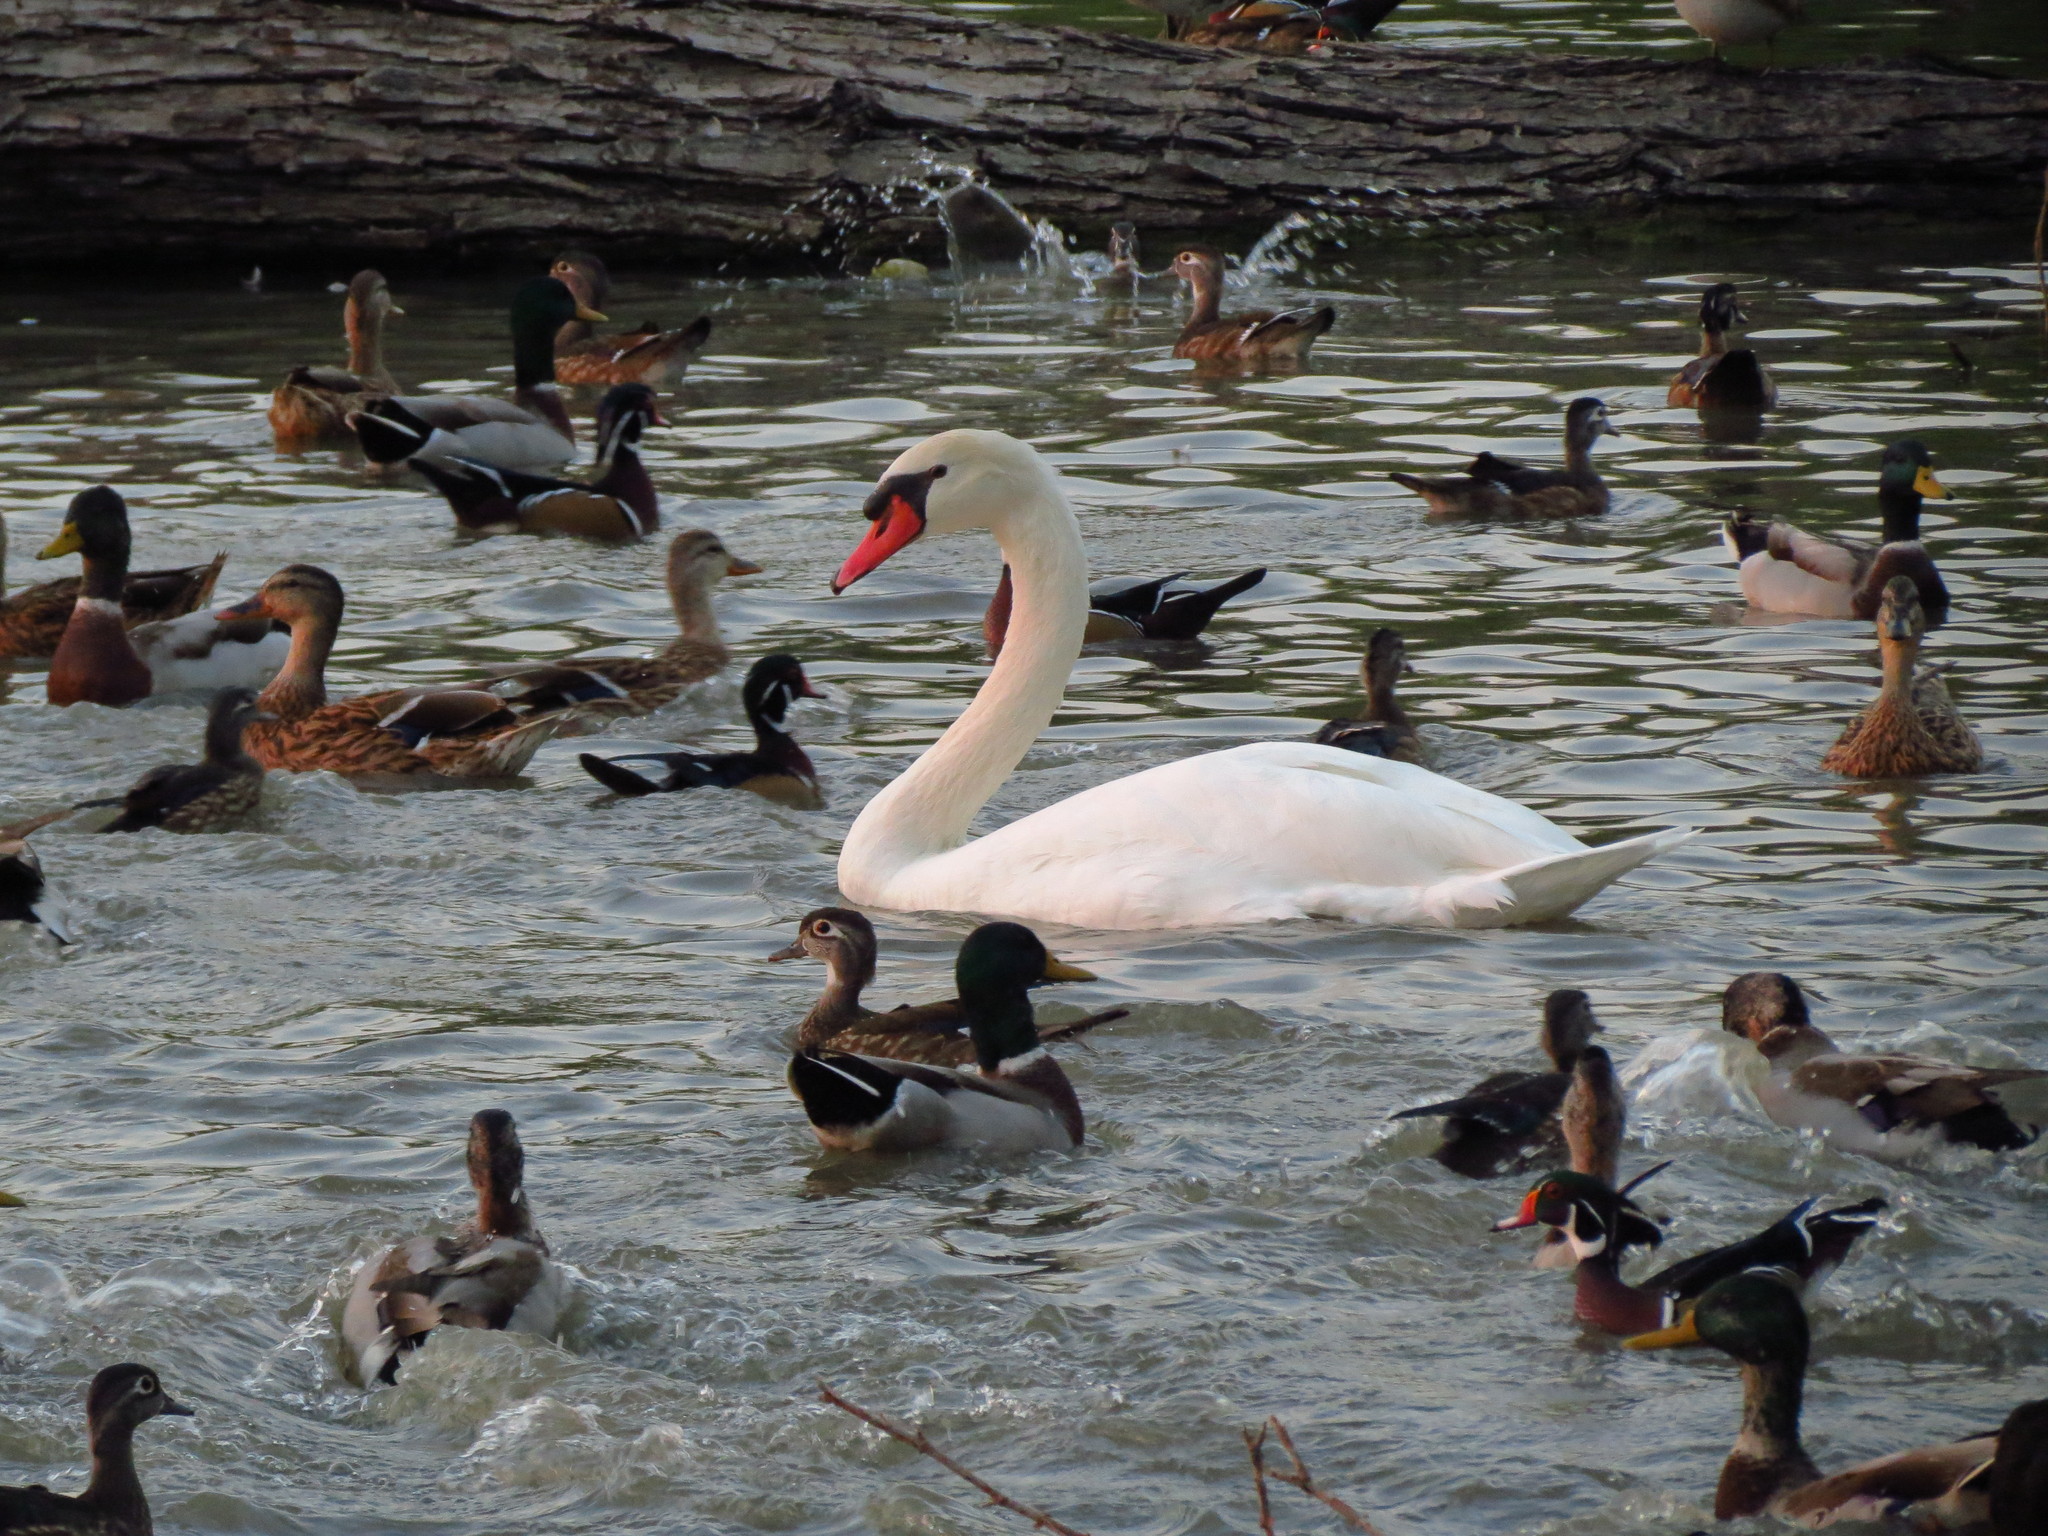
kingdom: Animalia
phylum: Chordata
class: Aves
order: Anseriformes
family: Anatidae
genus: Cygnus
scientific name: Cygnus olor
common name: Mute swan
